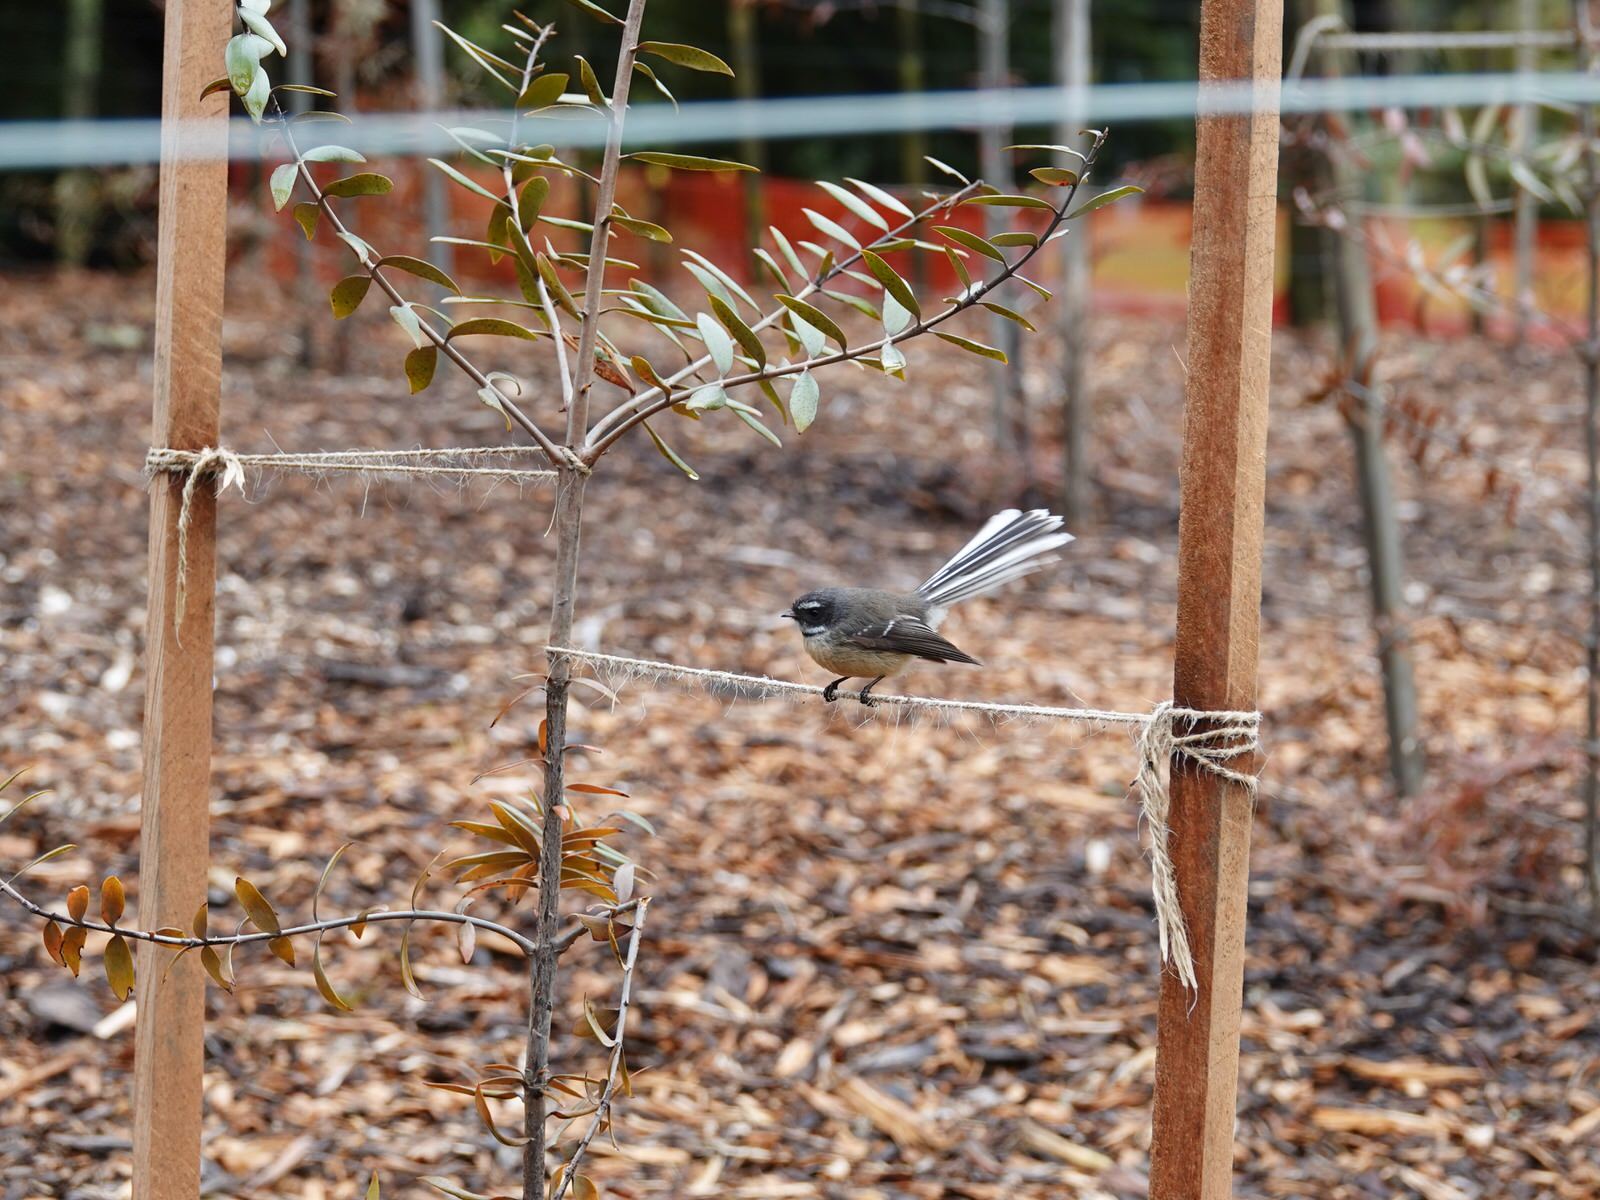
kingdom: Animalia
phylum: Chordata
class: Aves
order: Passeriformes
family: Rhipiduridae
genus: Rhipidura
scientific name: Rhipidura fuliginosa
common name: New zealand fantail
